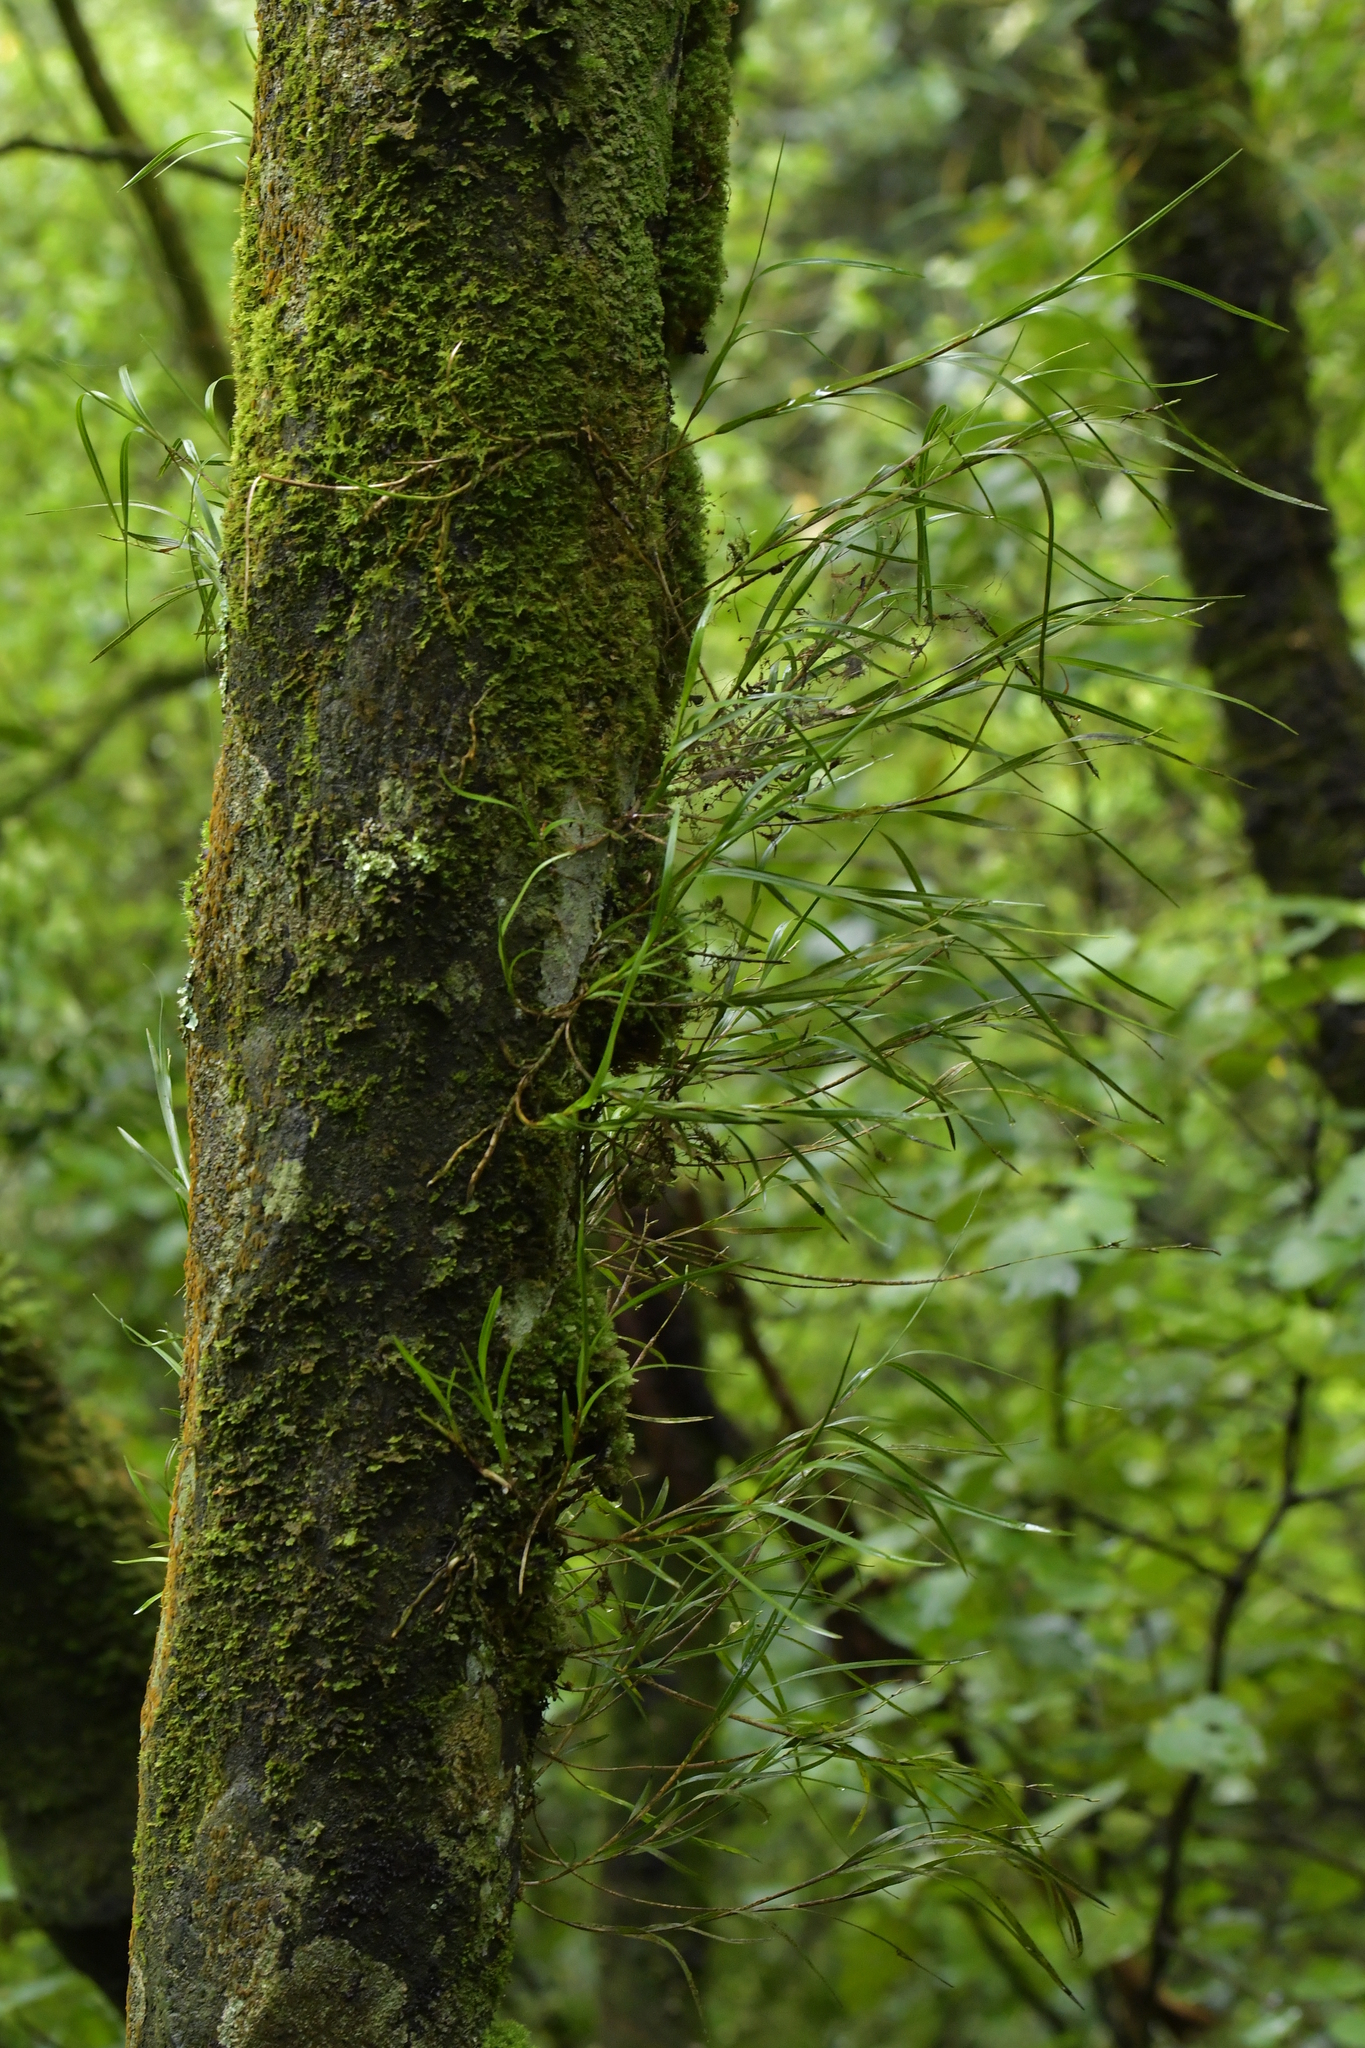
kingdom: Plantae
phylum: Tracheophyta
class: Liliopsida
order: Asparagales
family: Orchidaceae
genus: Earina
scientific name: Earina mucronata
